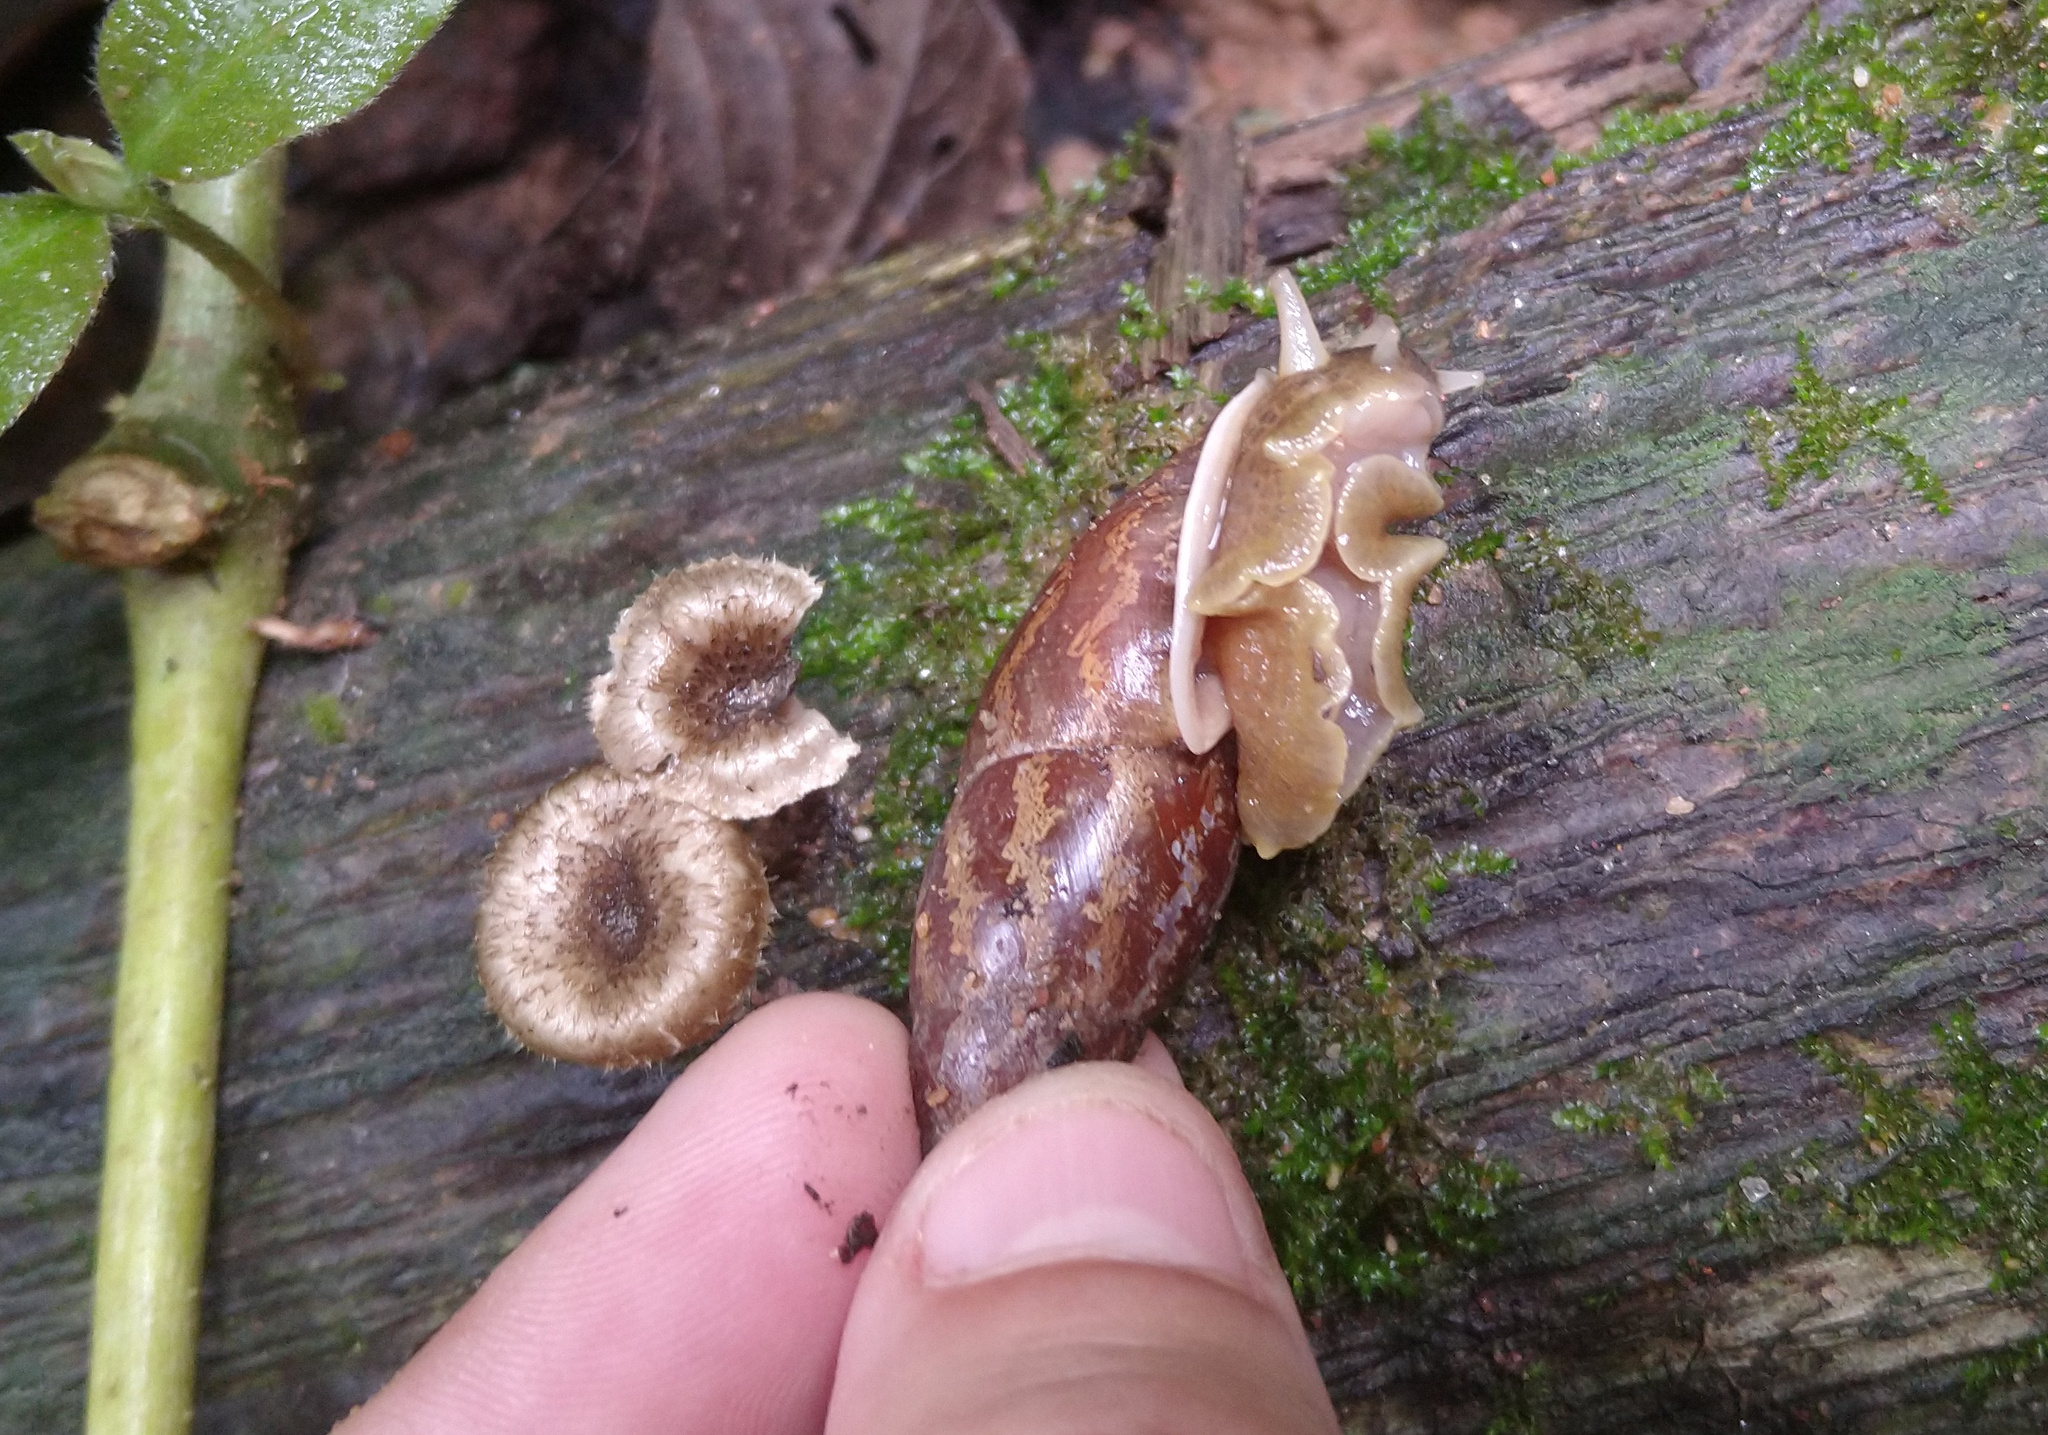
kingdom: Animalia
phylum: Mollusca
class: Gastropoda
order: Stylommatophora
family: Odontostomidae
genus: Odontostomus
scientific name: Odontostomus paulista
